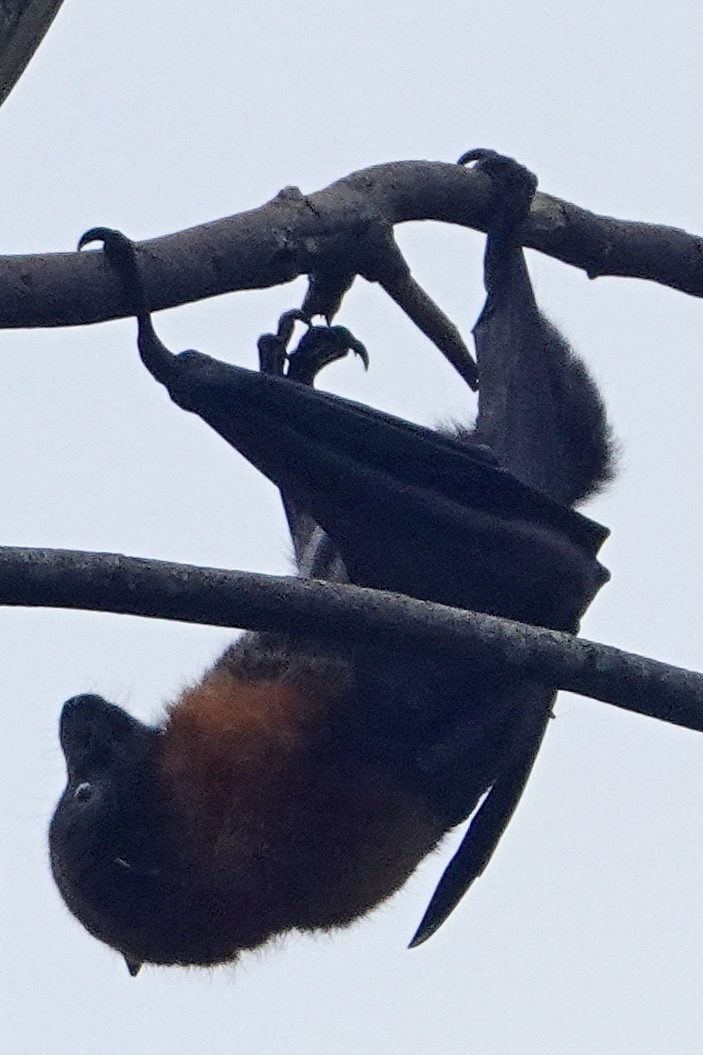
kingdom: Animalia
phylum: Chordata
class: Mammalia
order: Chiroptera
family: Pteropodidae
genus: Pteropus
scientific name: Pteropus poliocephalus
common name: Gray-headed flying fox
